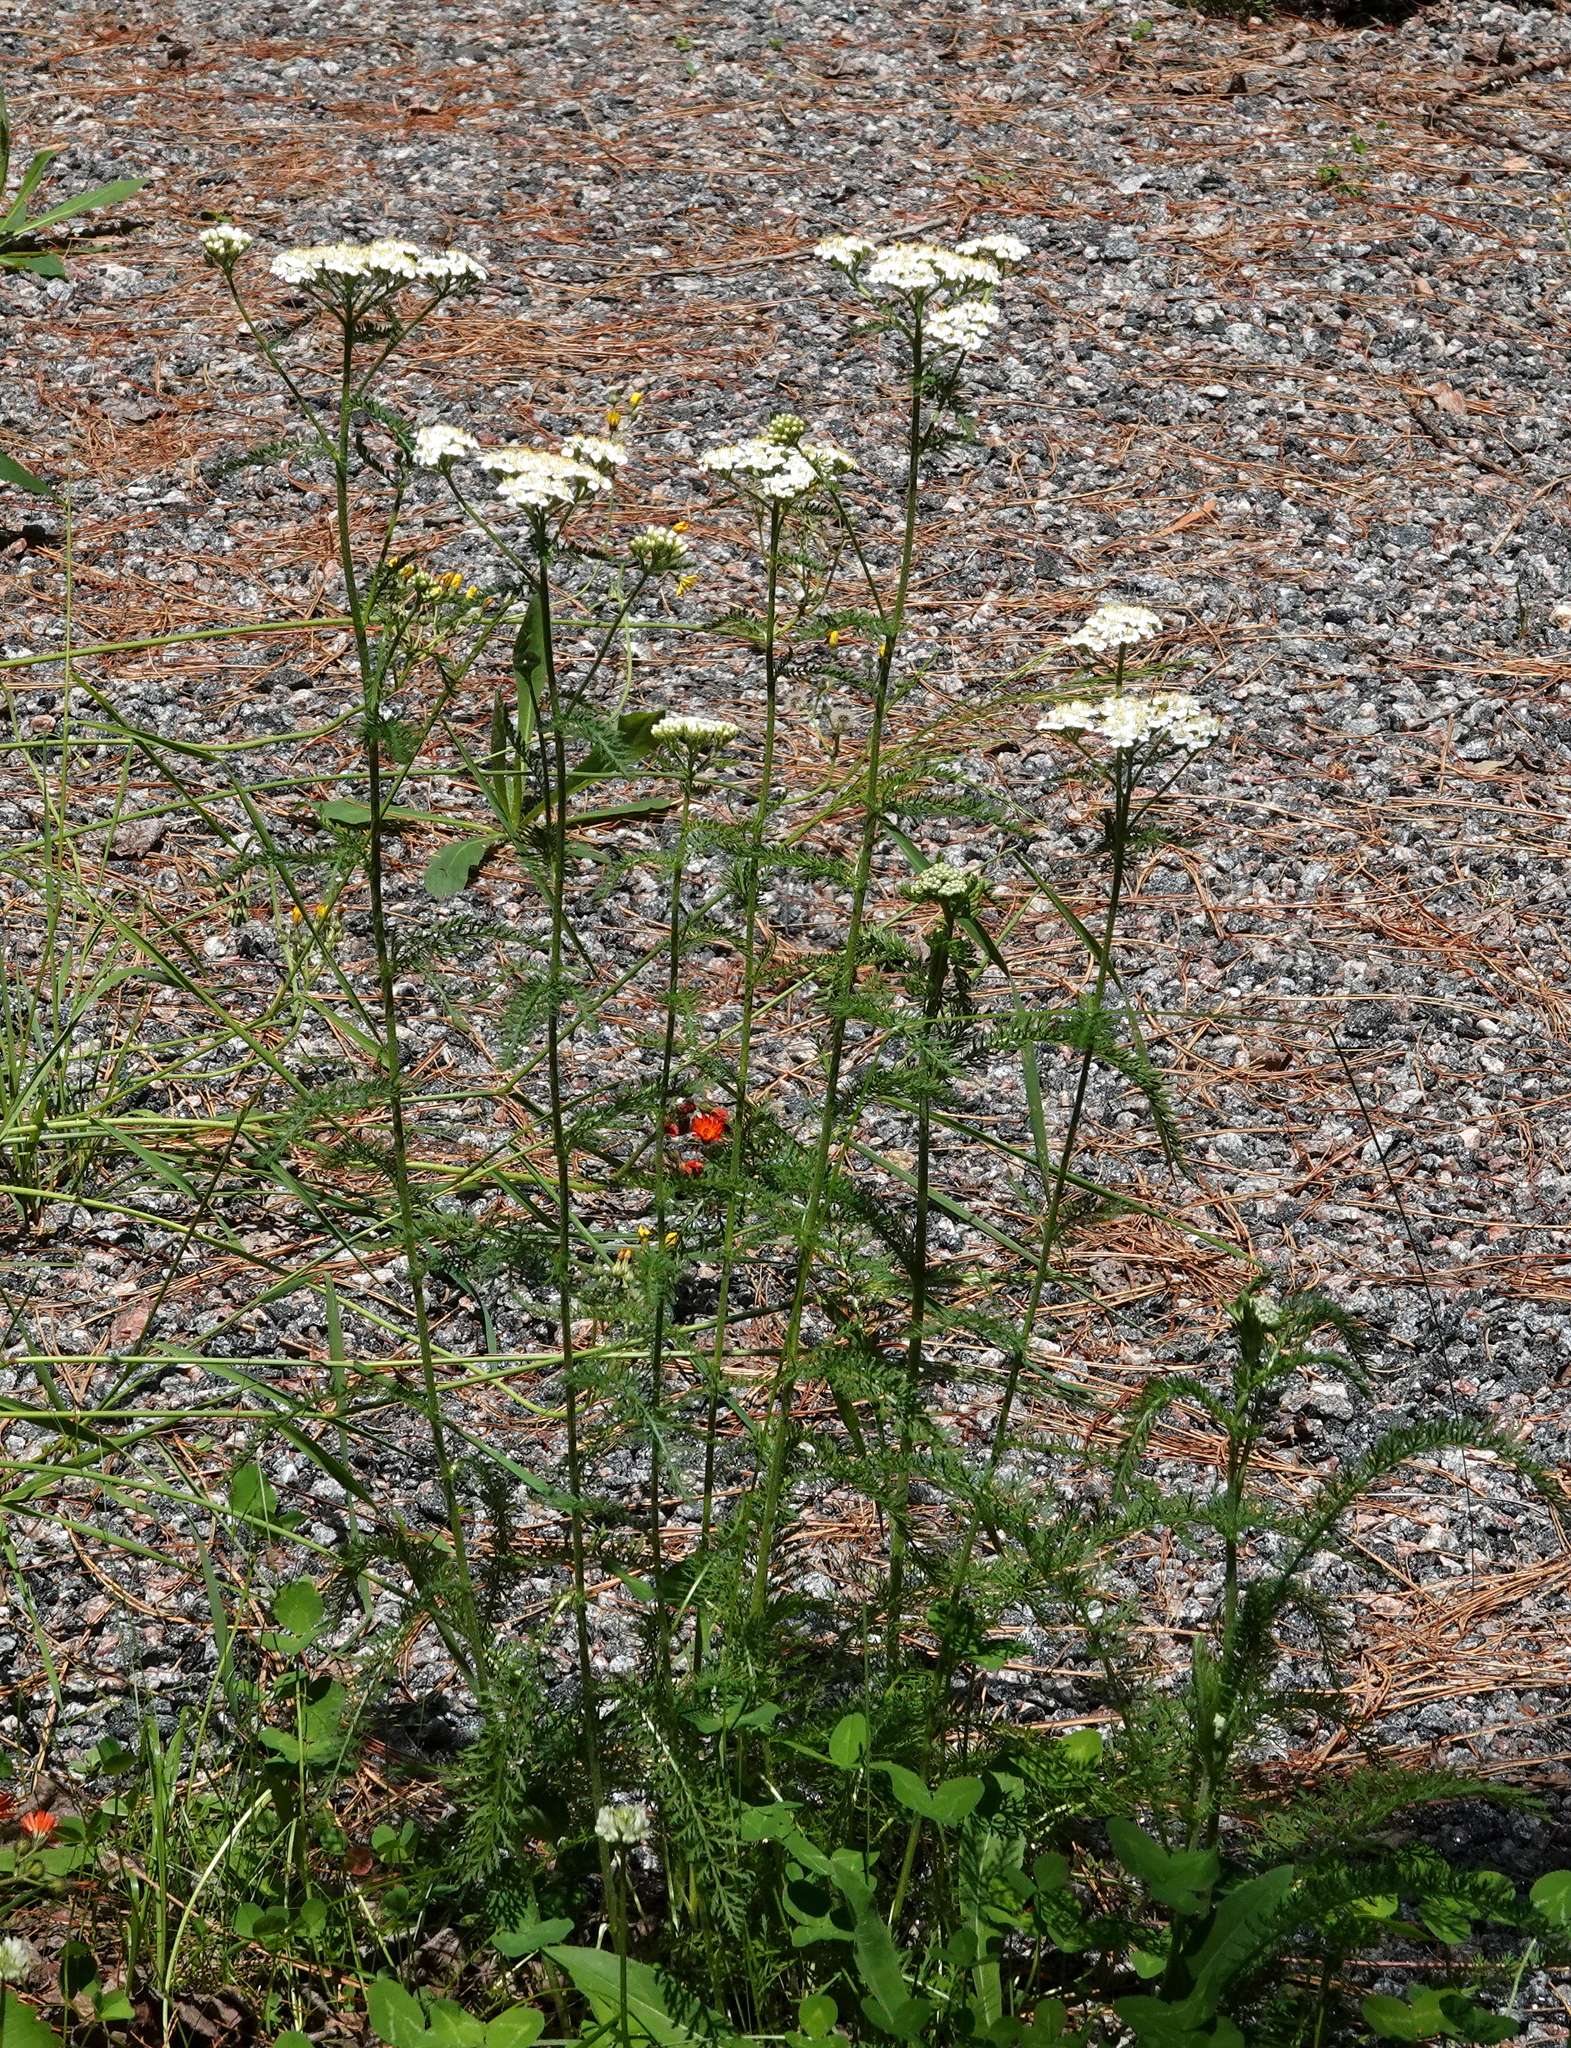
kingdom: Plantae
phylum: Tracheophyta
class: Magnoliopsida
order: Asterales
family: Asteraceae
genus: Achillea
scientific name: Achillea millefolium
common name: Yarrow
